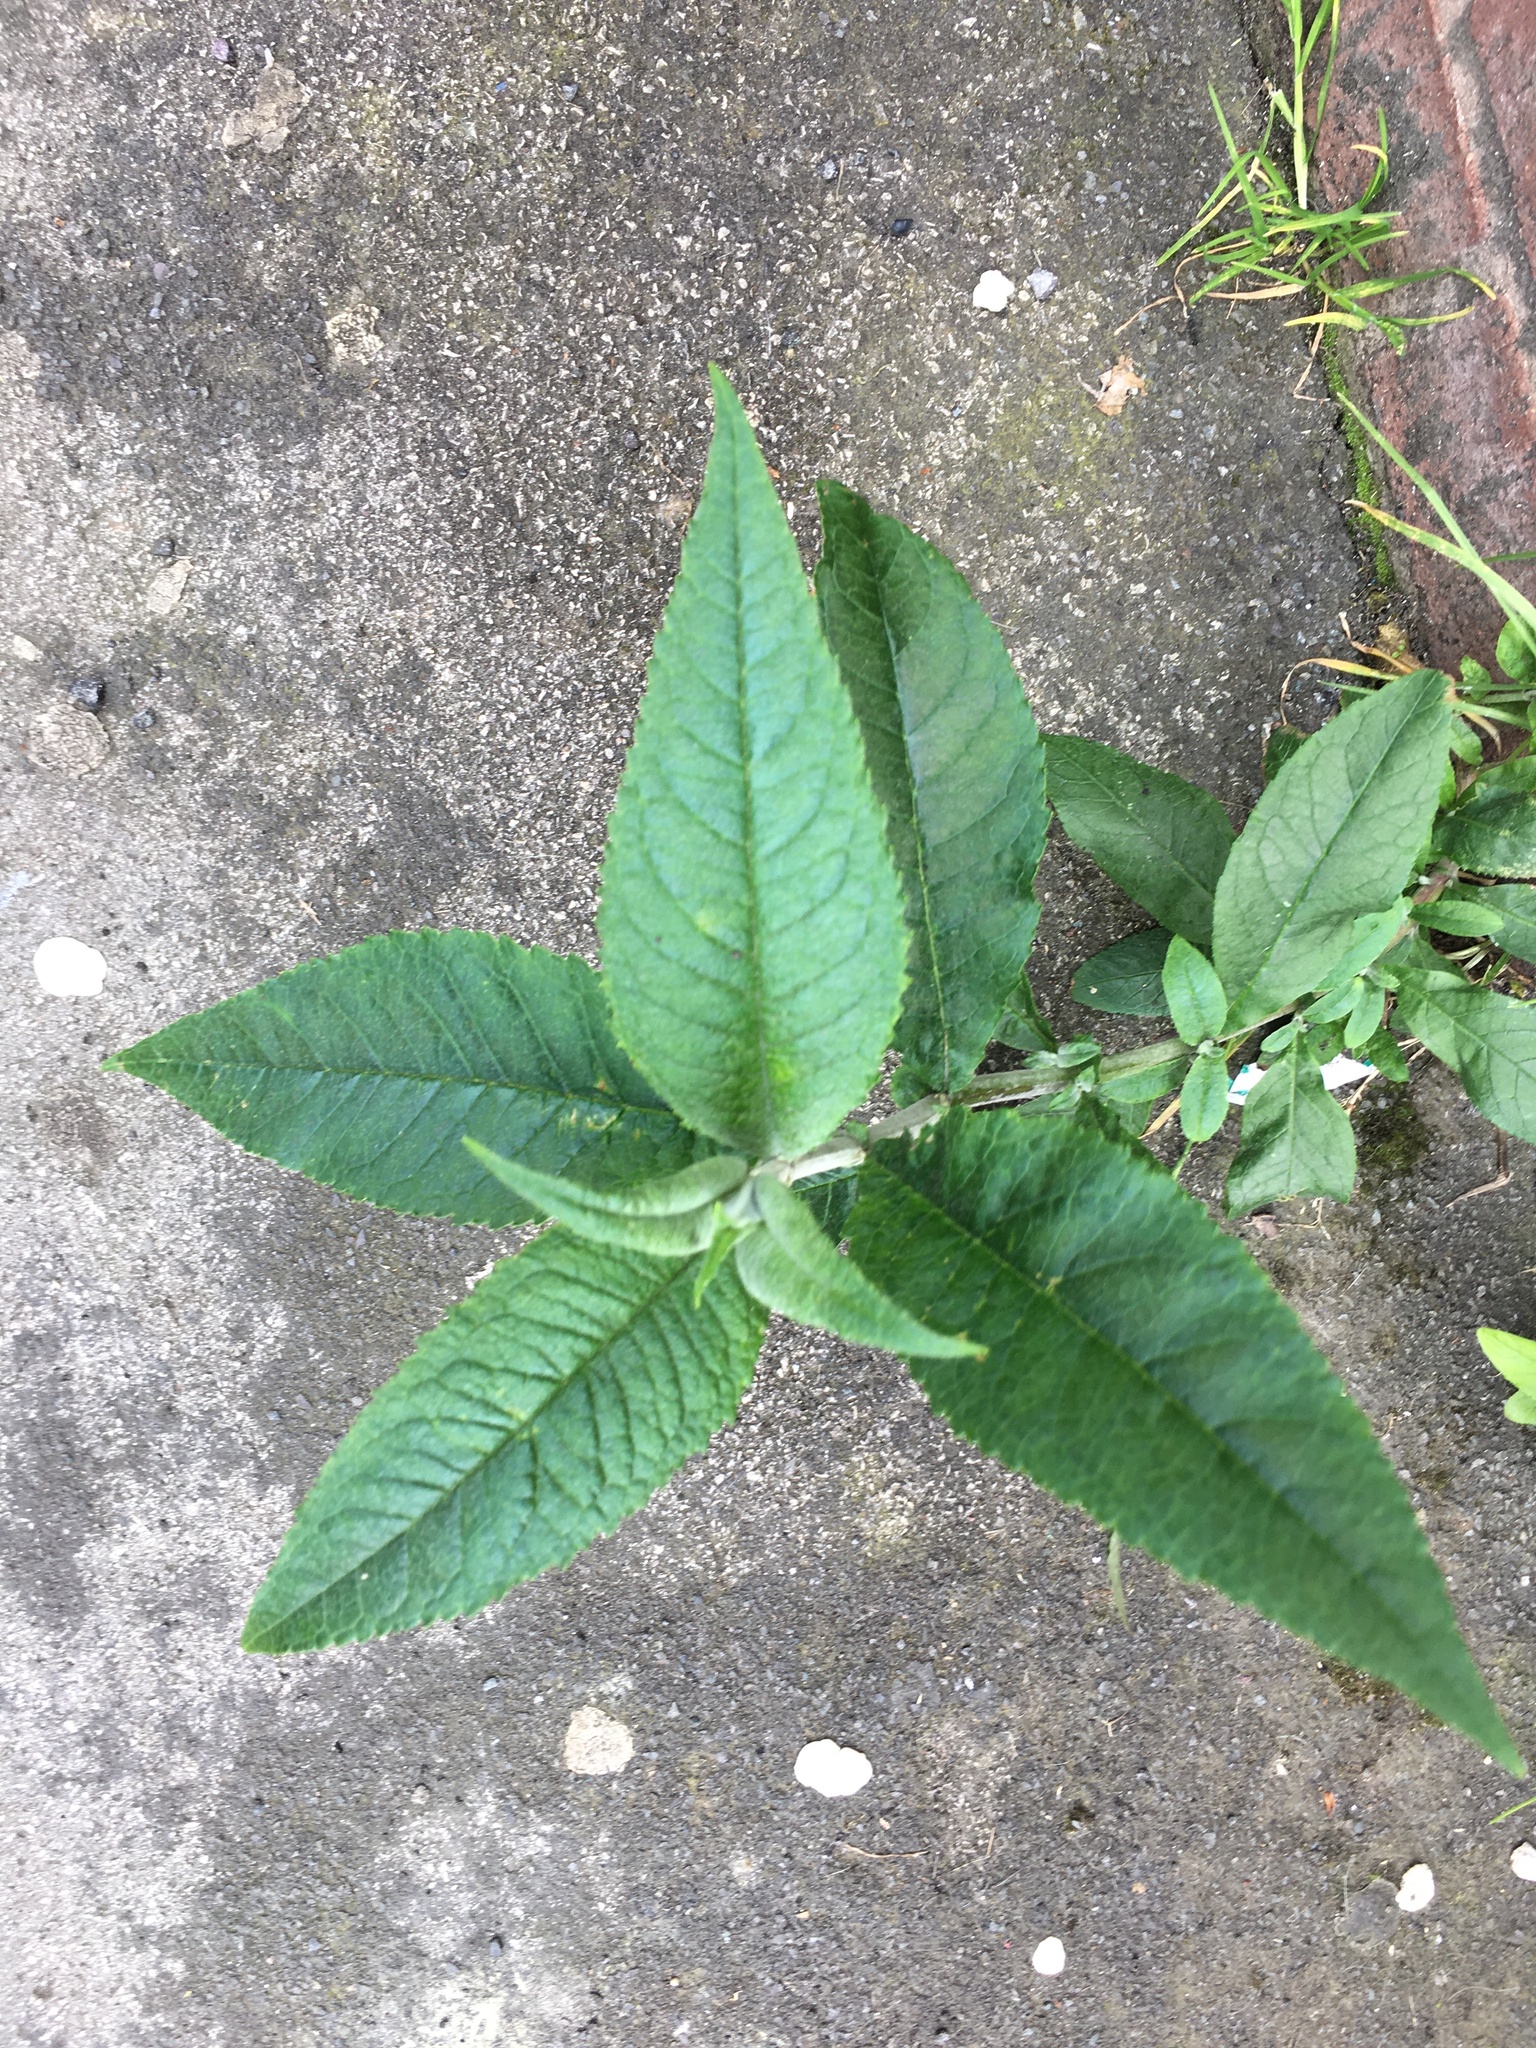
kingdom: Plantae
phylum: Tracheophyta
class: Magnoliopsida
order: Lamiales
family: Scrophulariaceae
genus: Buddleja
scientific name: Buddleja davidii
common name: Butterfly-bush
